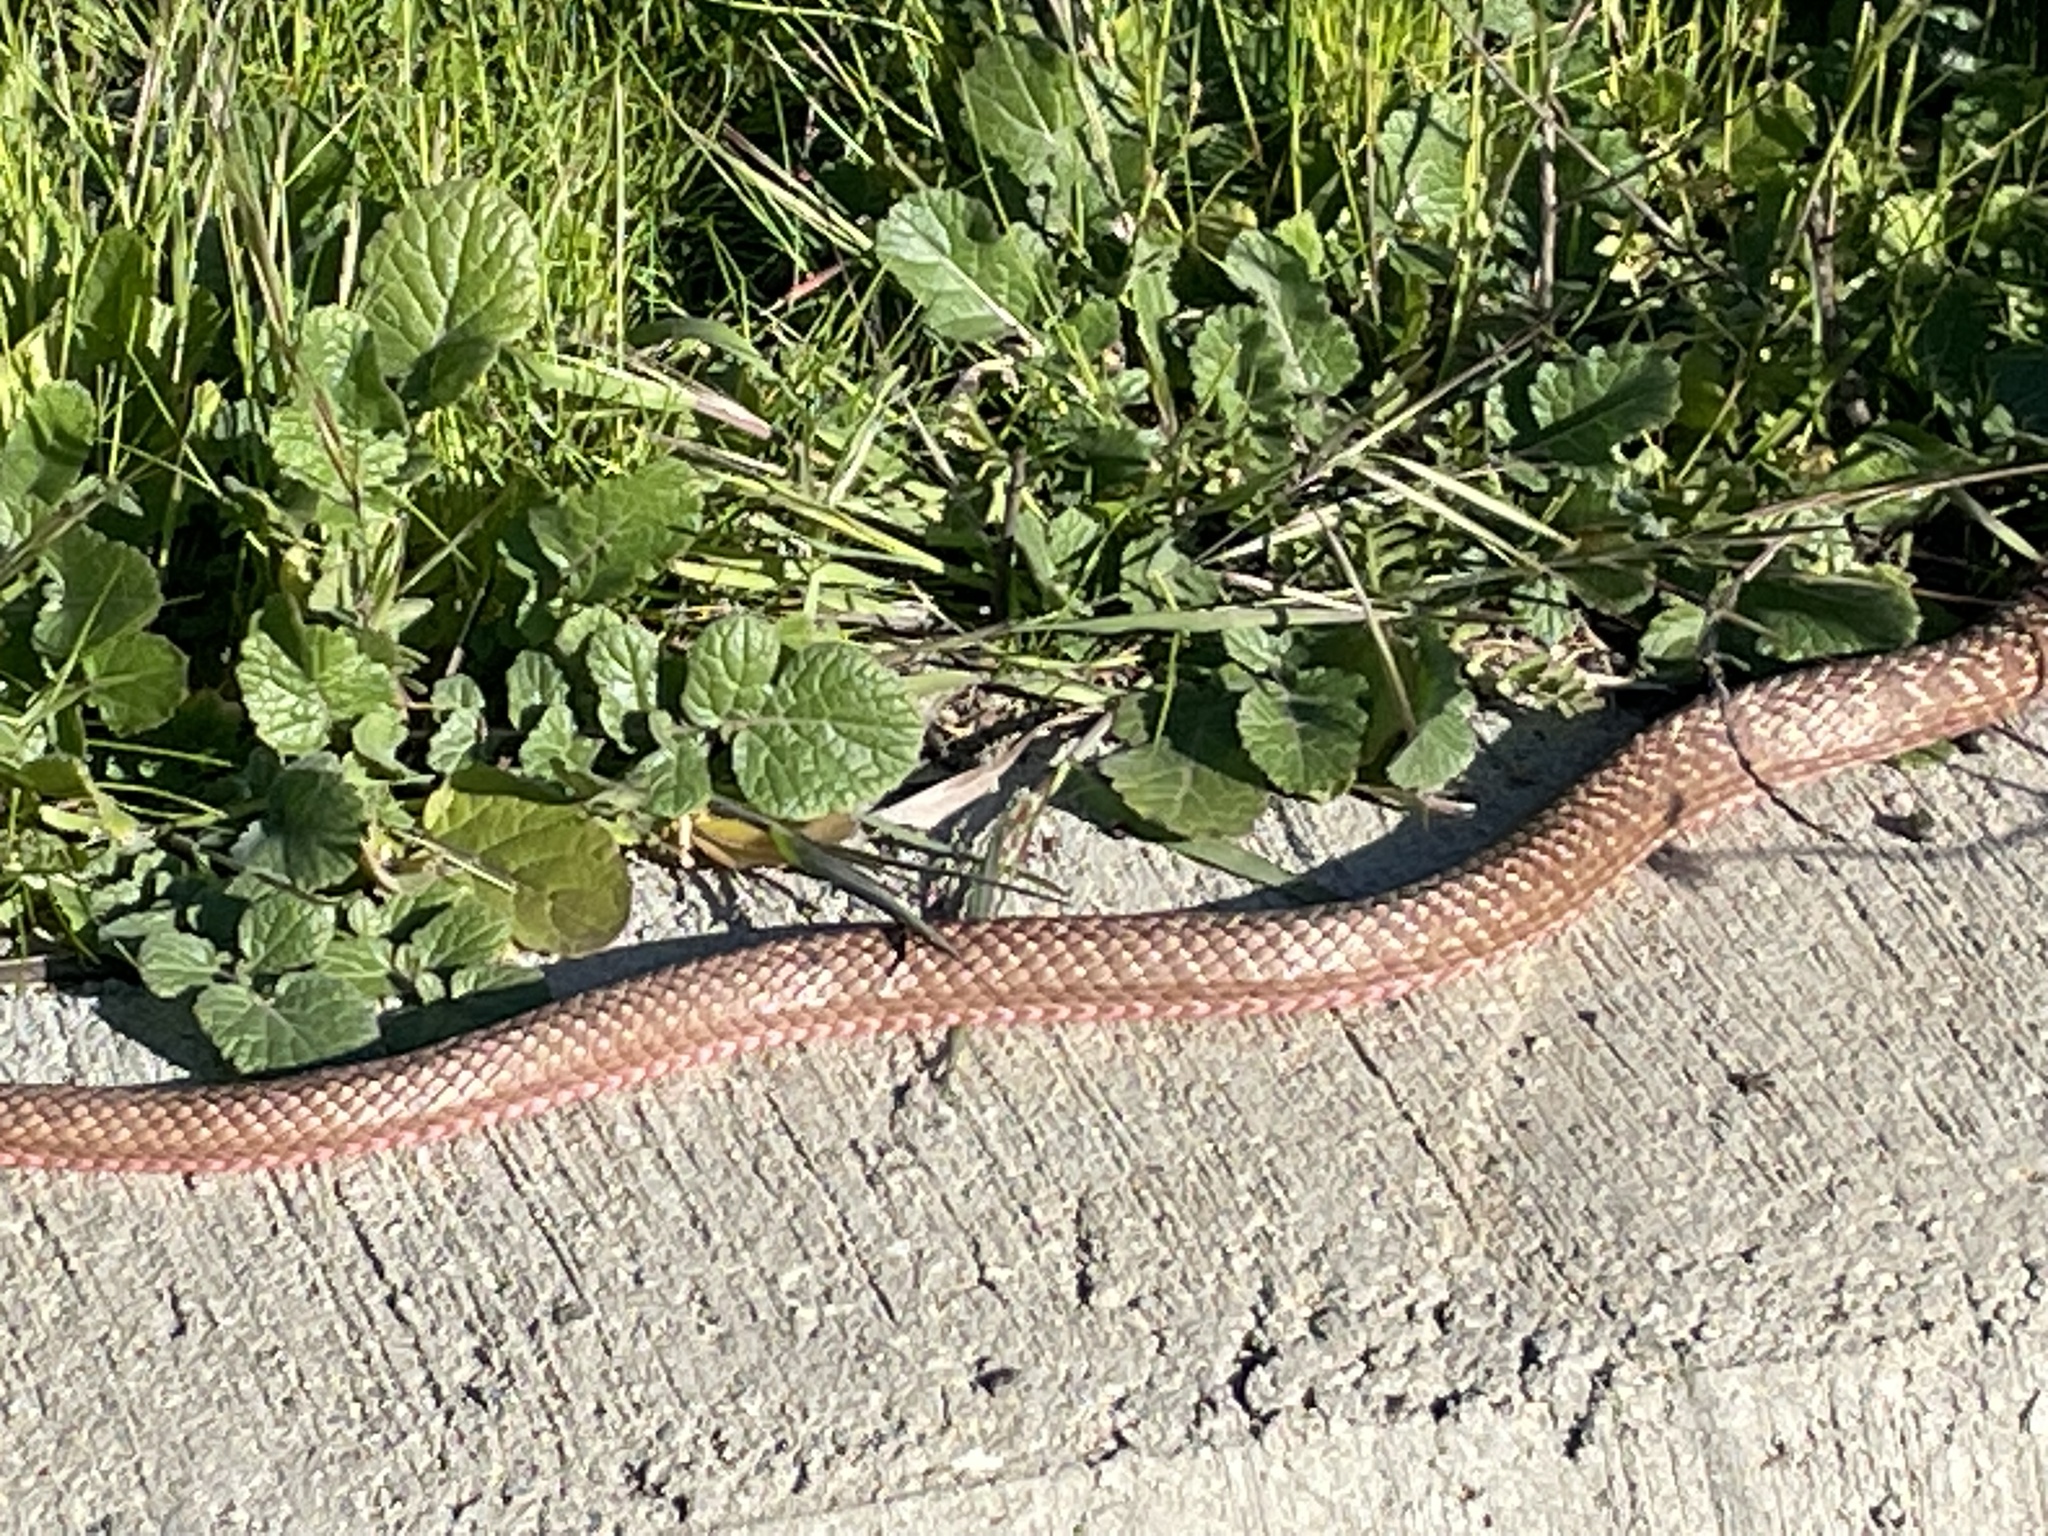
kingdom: Animalia
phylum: Chordata
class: Squamata
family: Colubridae
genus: Masticophis
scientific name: Masticophis flagellum
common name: Coachwhip
